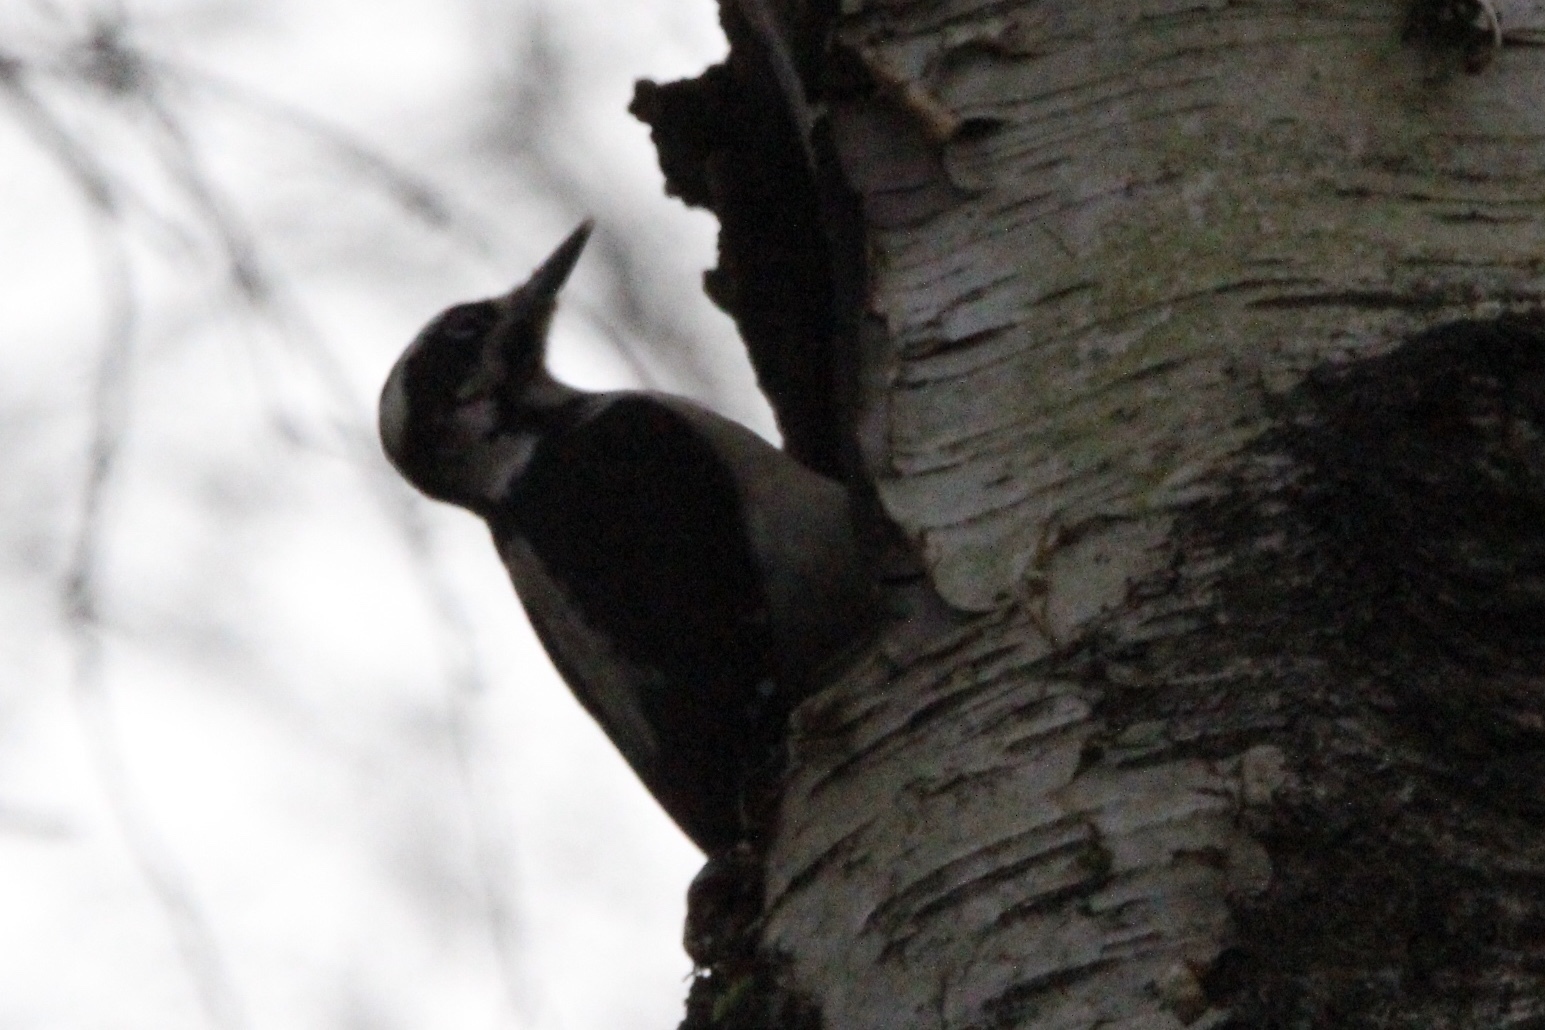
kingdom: Animalia
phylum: Chordata
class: Aves
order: Piciformes
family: Picidae
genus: Leuconotopicus
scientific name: Leuconotopicus villosus
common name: Hairy woodpecker
